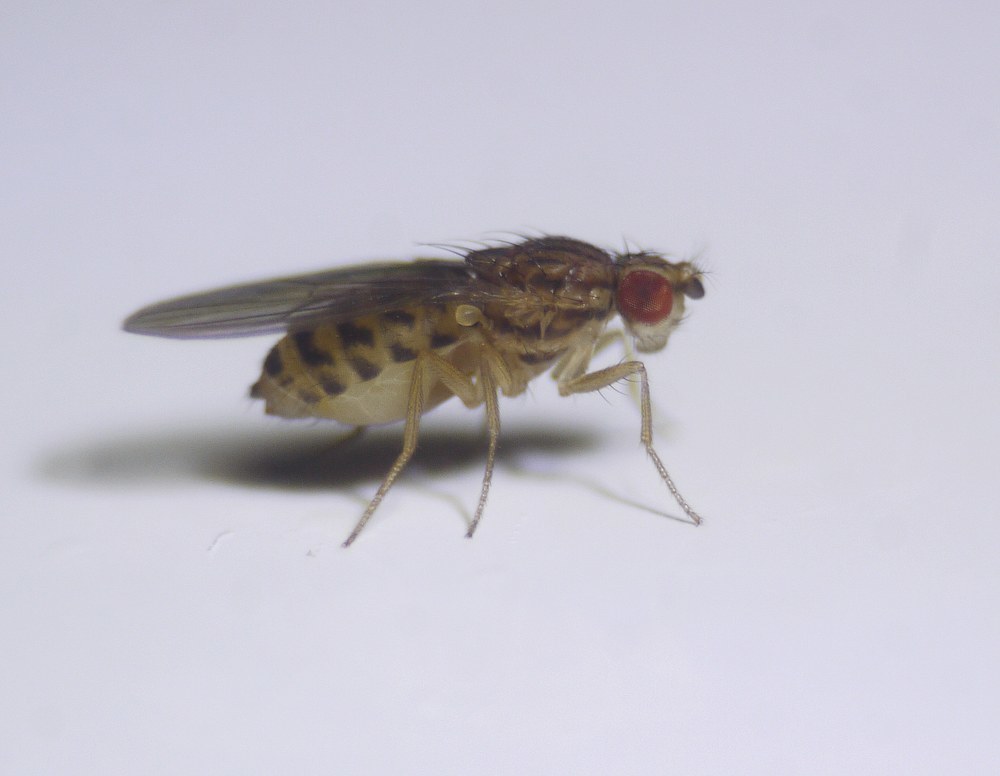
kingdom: Animalia
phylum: Arthropoda
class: Insecta
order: Diptera
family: Drosophilidae
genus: Drosophila
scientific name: Drosophila busckii
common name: Pomace fly
